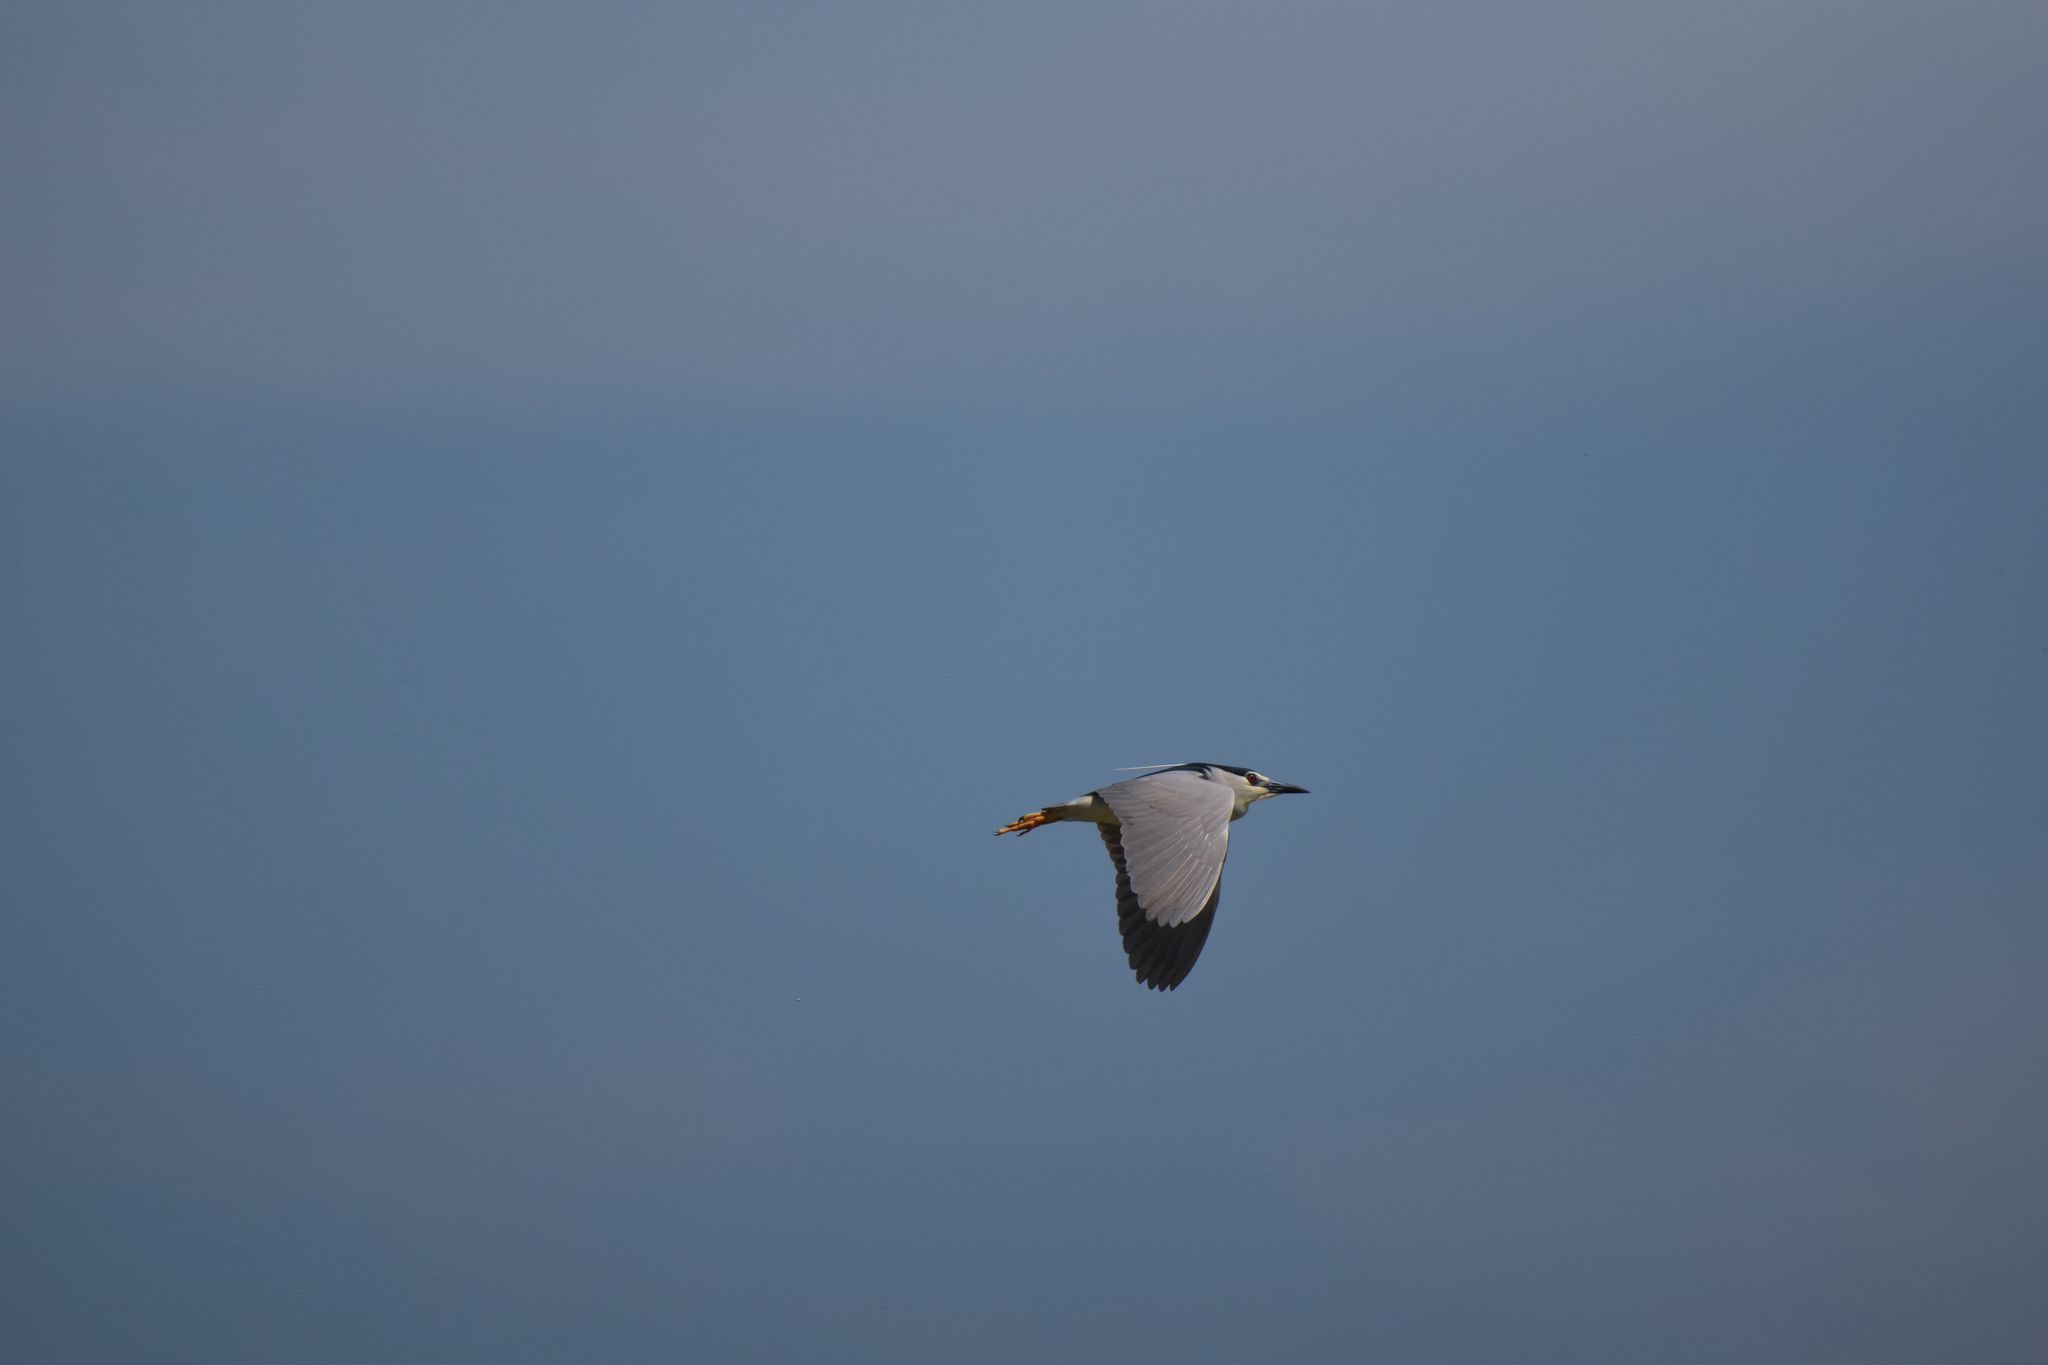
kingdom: Animalia
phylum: Chordata
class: Aves
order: Pelecaniformes
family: Ardeidae
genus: Nycticorax
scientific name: Nycticorax nycticorax
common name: Black-crowned night heron
